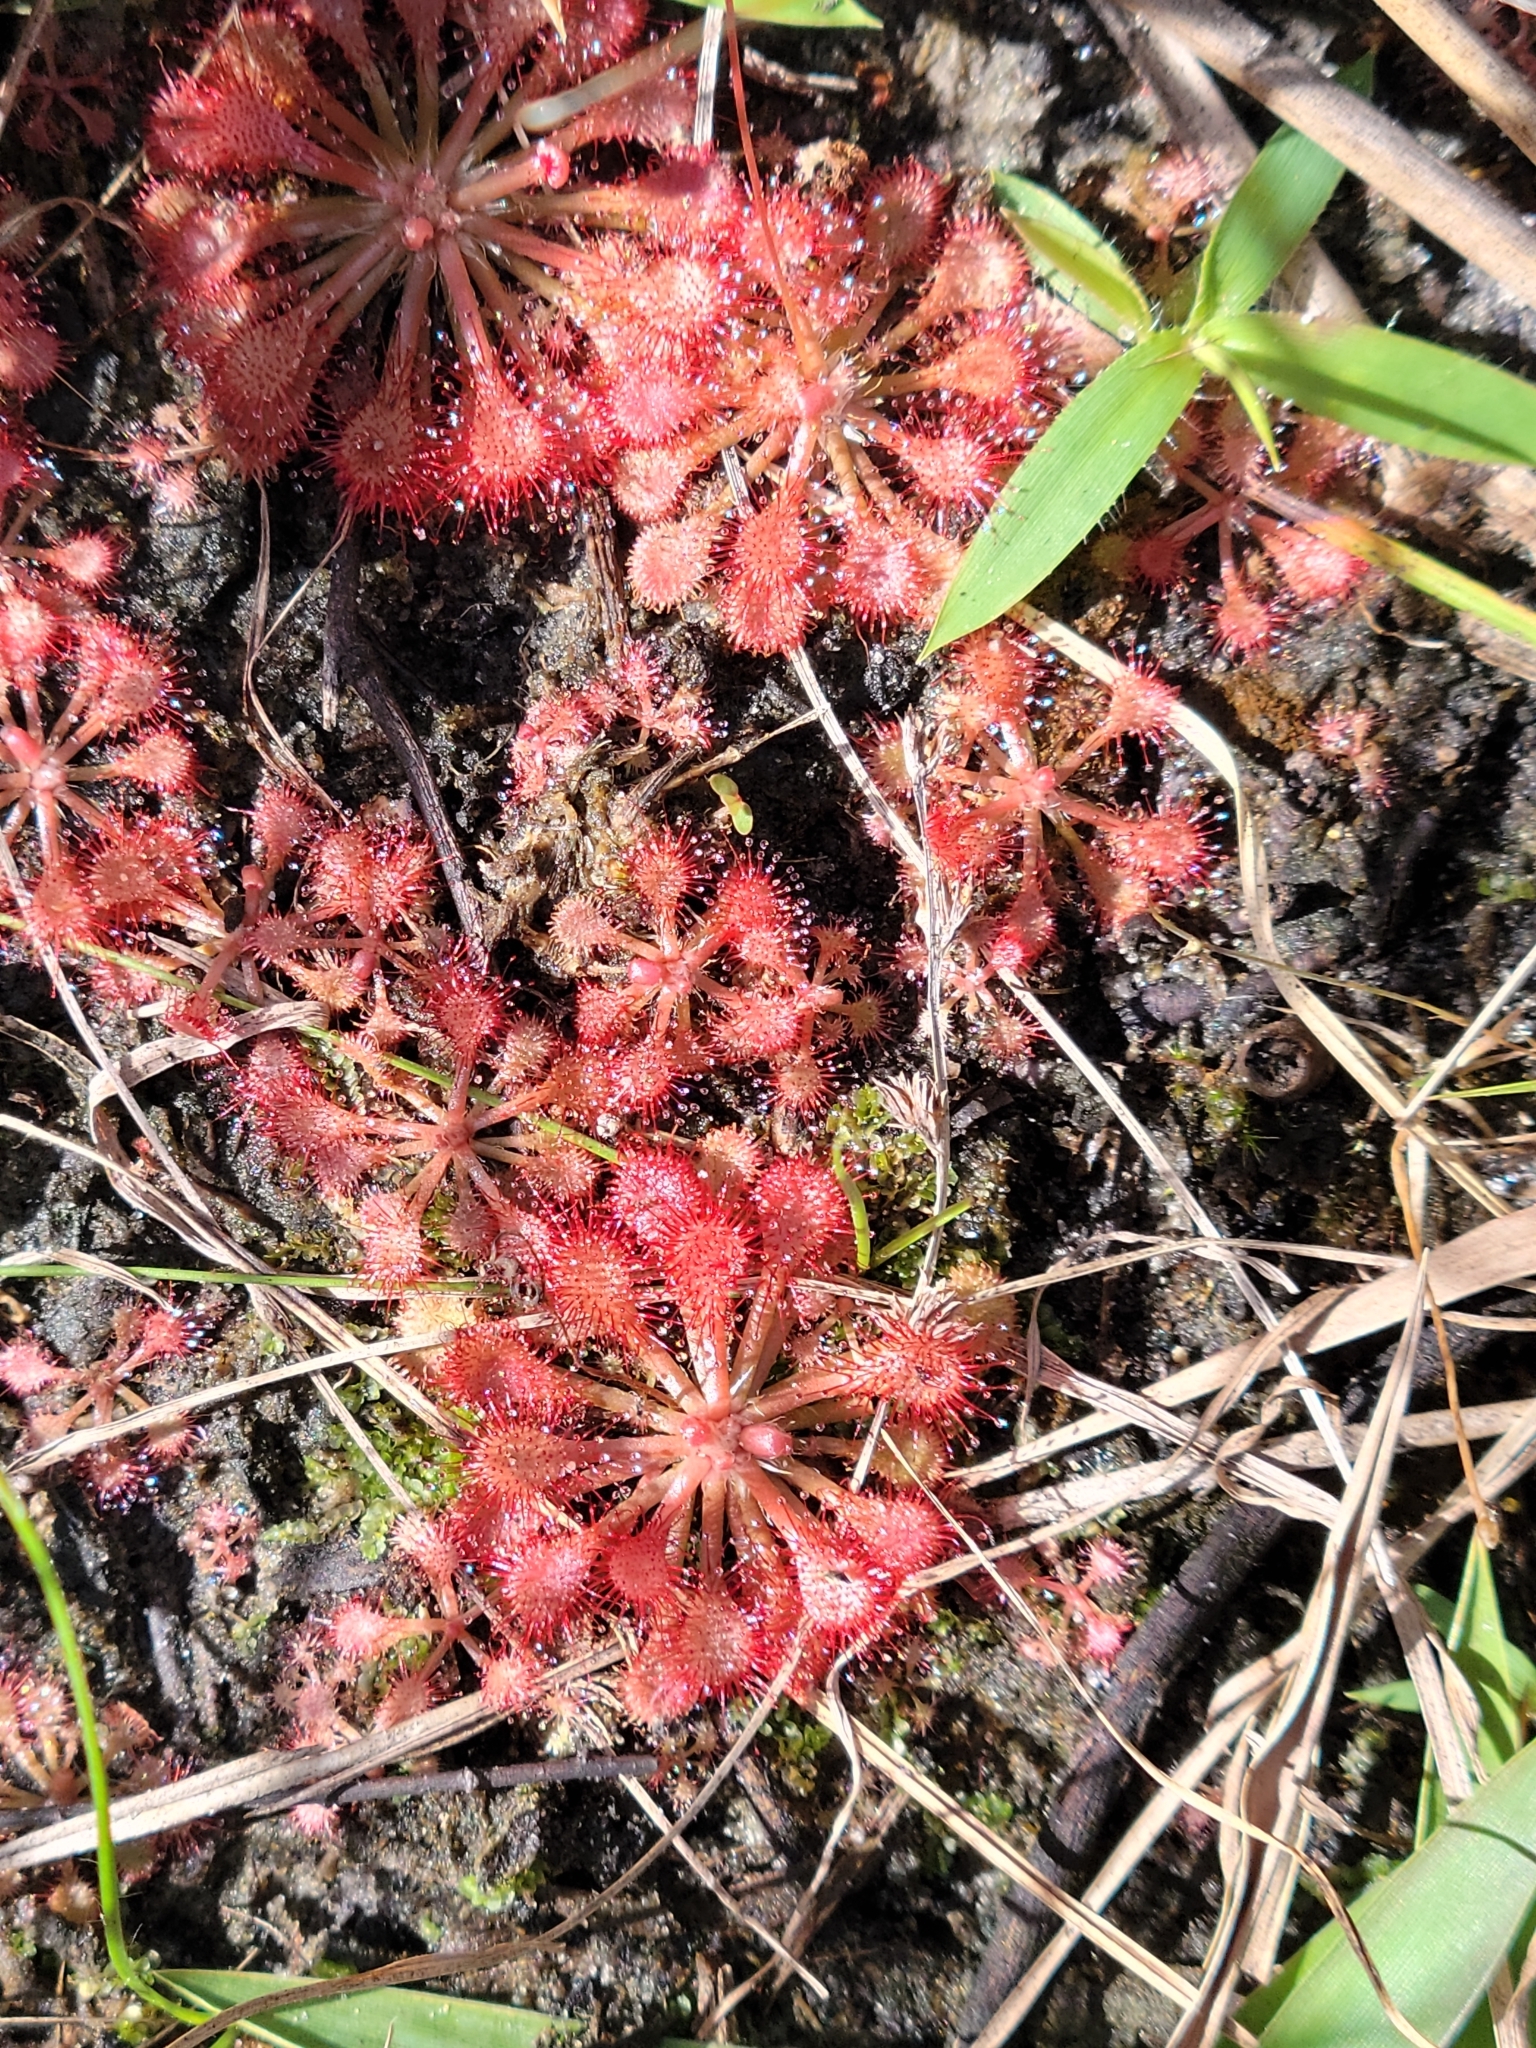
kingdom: Plantae
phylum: Tracheophyta
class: Magnoliopsida
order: Caryophyllales
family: Droseraceae
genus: Drosera
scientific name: Drosera capillaris
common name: Pink sundew
